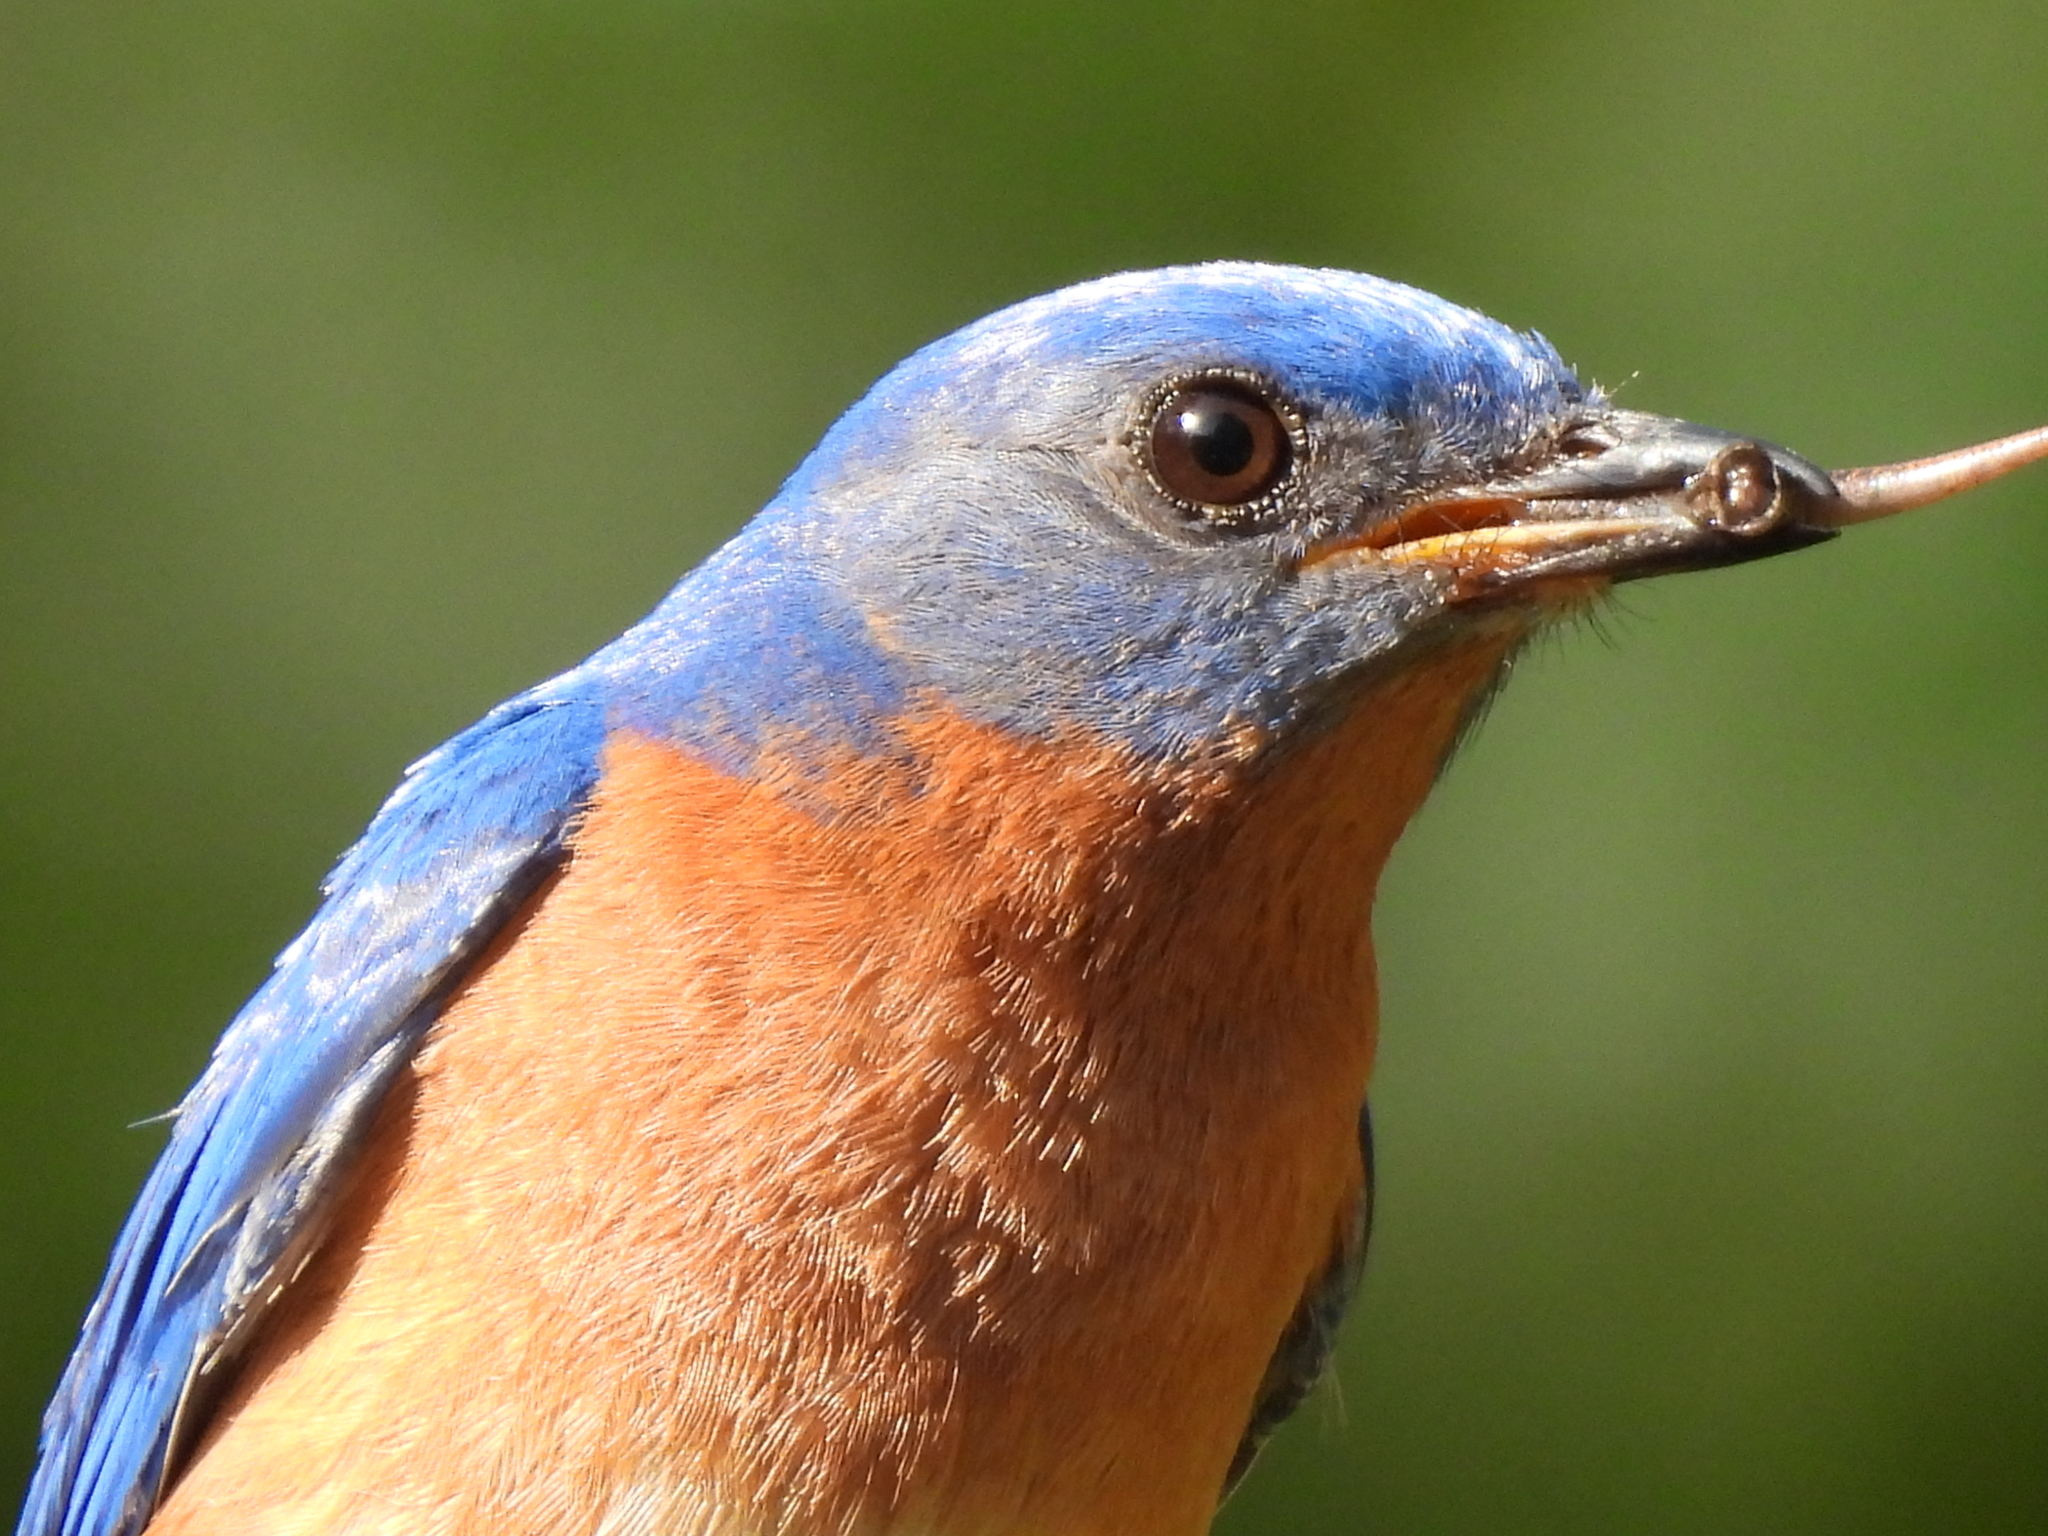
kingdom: Animalia
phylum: Chordata
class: Squamata
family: Scincidae
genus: Scincella
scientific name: Scincella lateralis
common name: Ground skink
